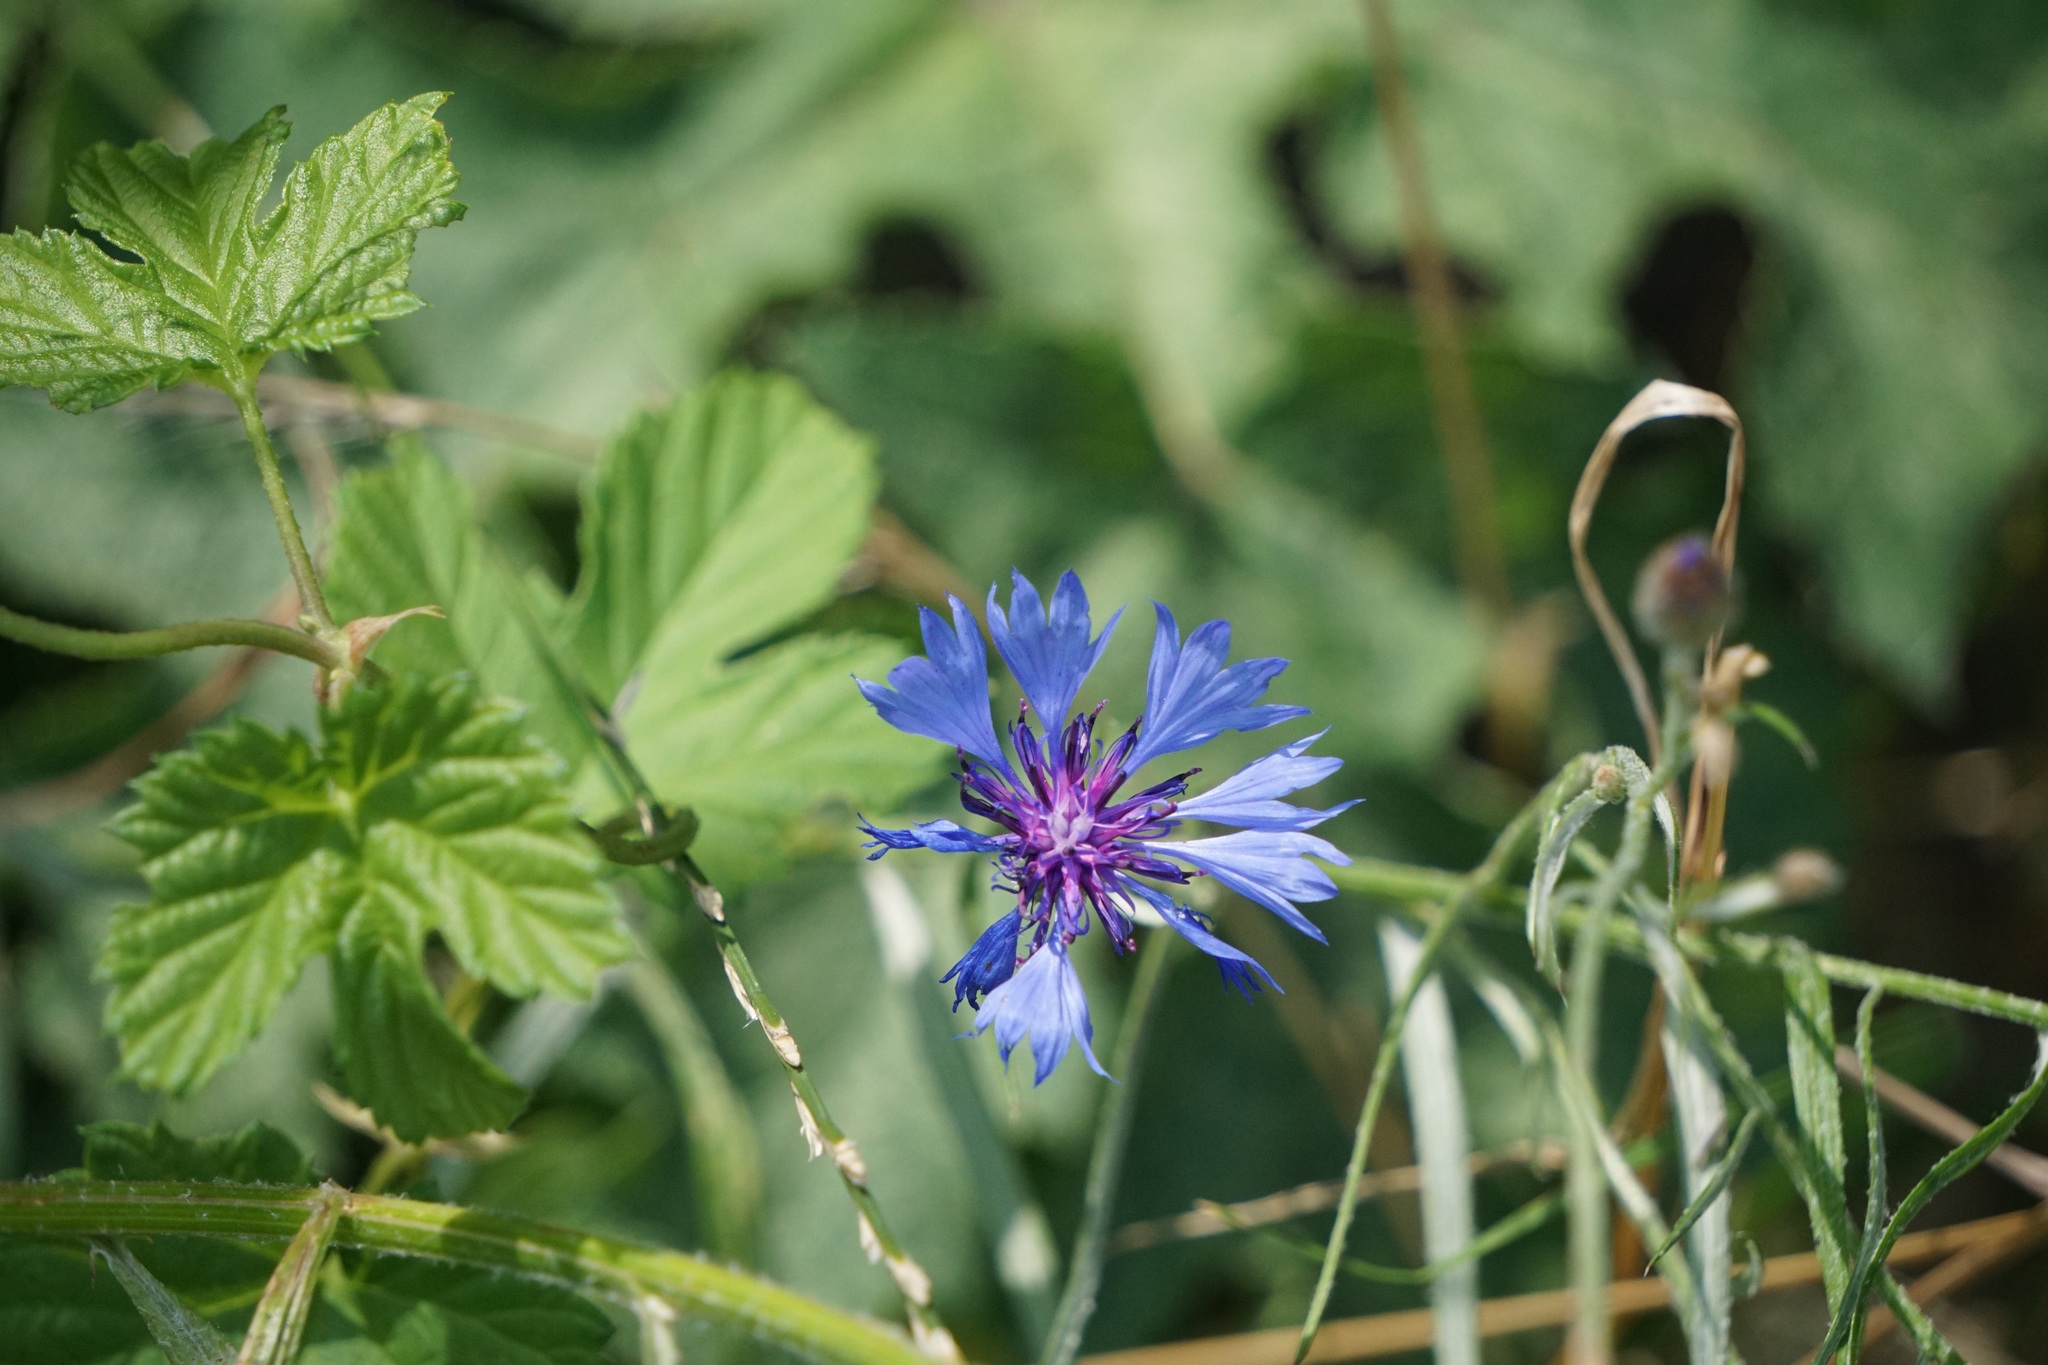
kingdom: Plantae
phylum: Tracheophyta
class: Magnoliopsida
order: Asterales
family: Asteraceae
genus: Centaurea
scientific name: Centaurea cyanus
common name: Cornflower
